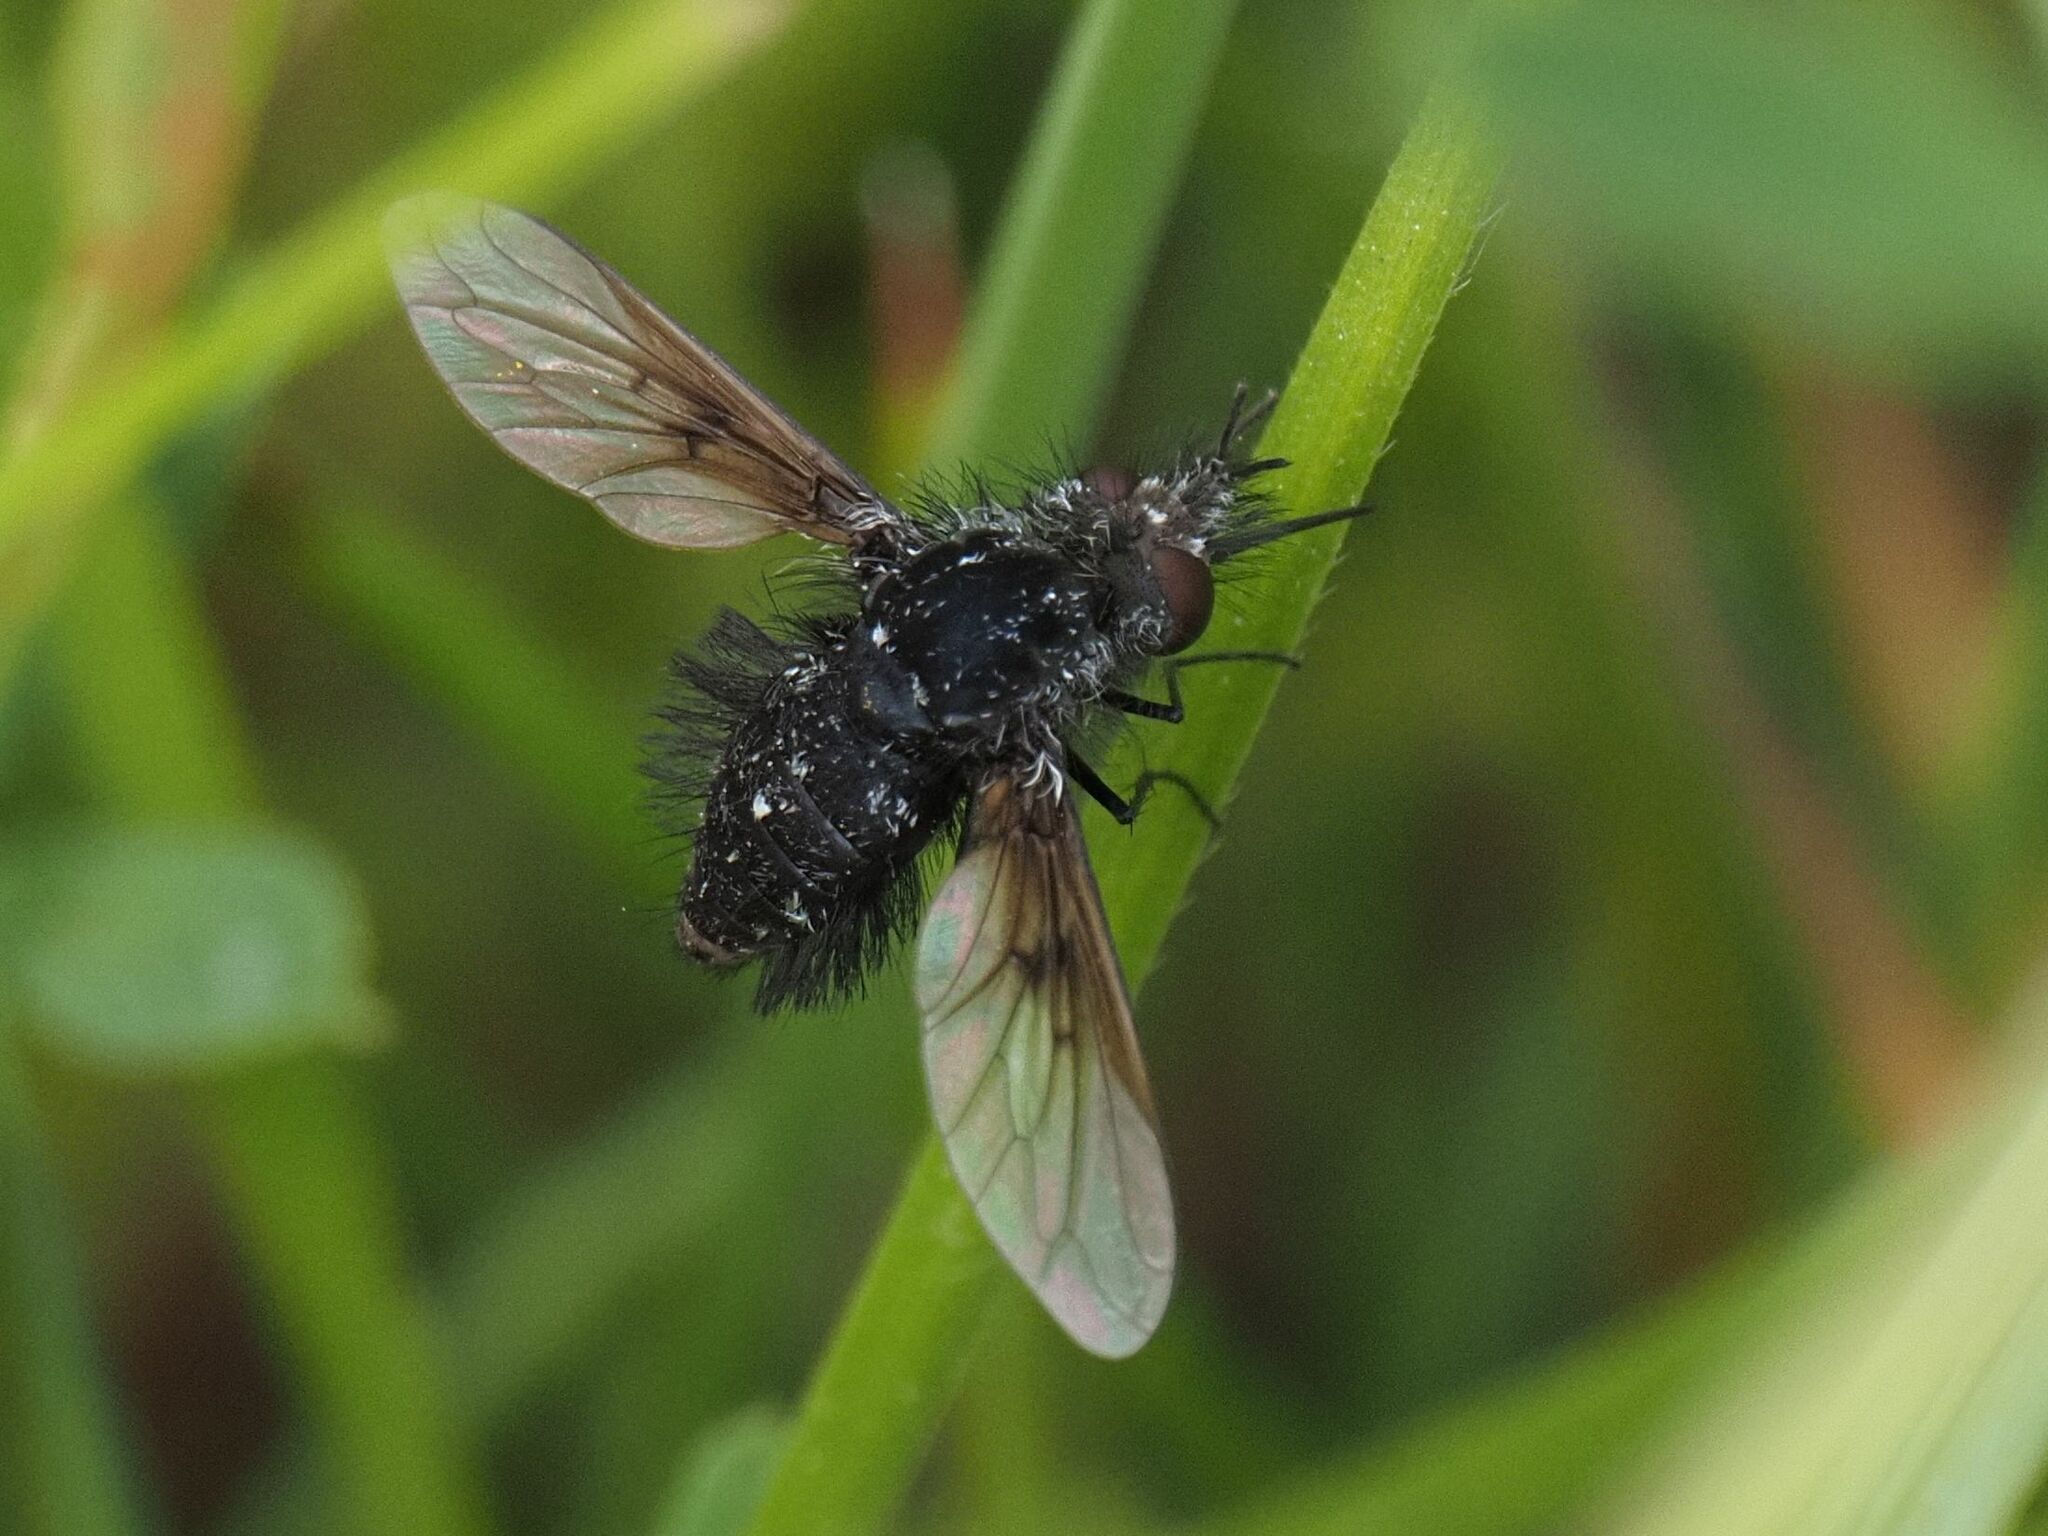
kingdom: Animalia
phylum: Arthropoda
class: Insecta
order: Diptera
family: Bombyliidae
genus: Bombylella
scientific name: Bombylella atra
